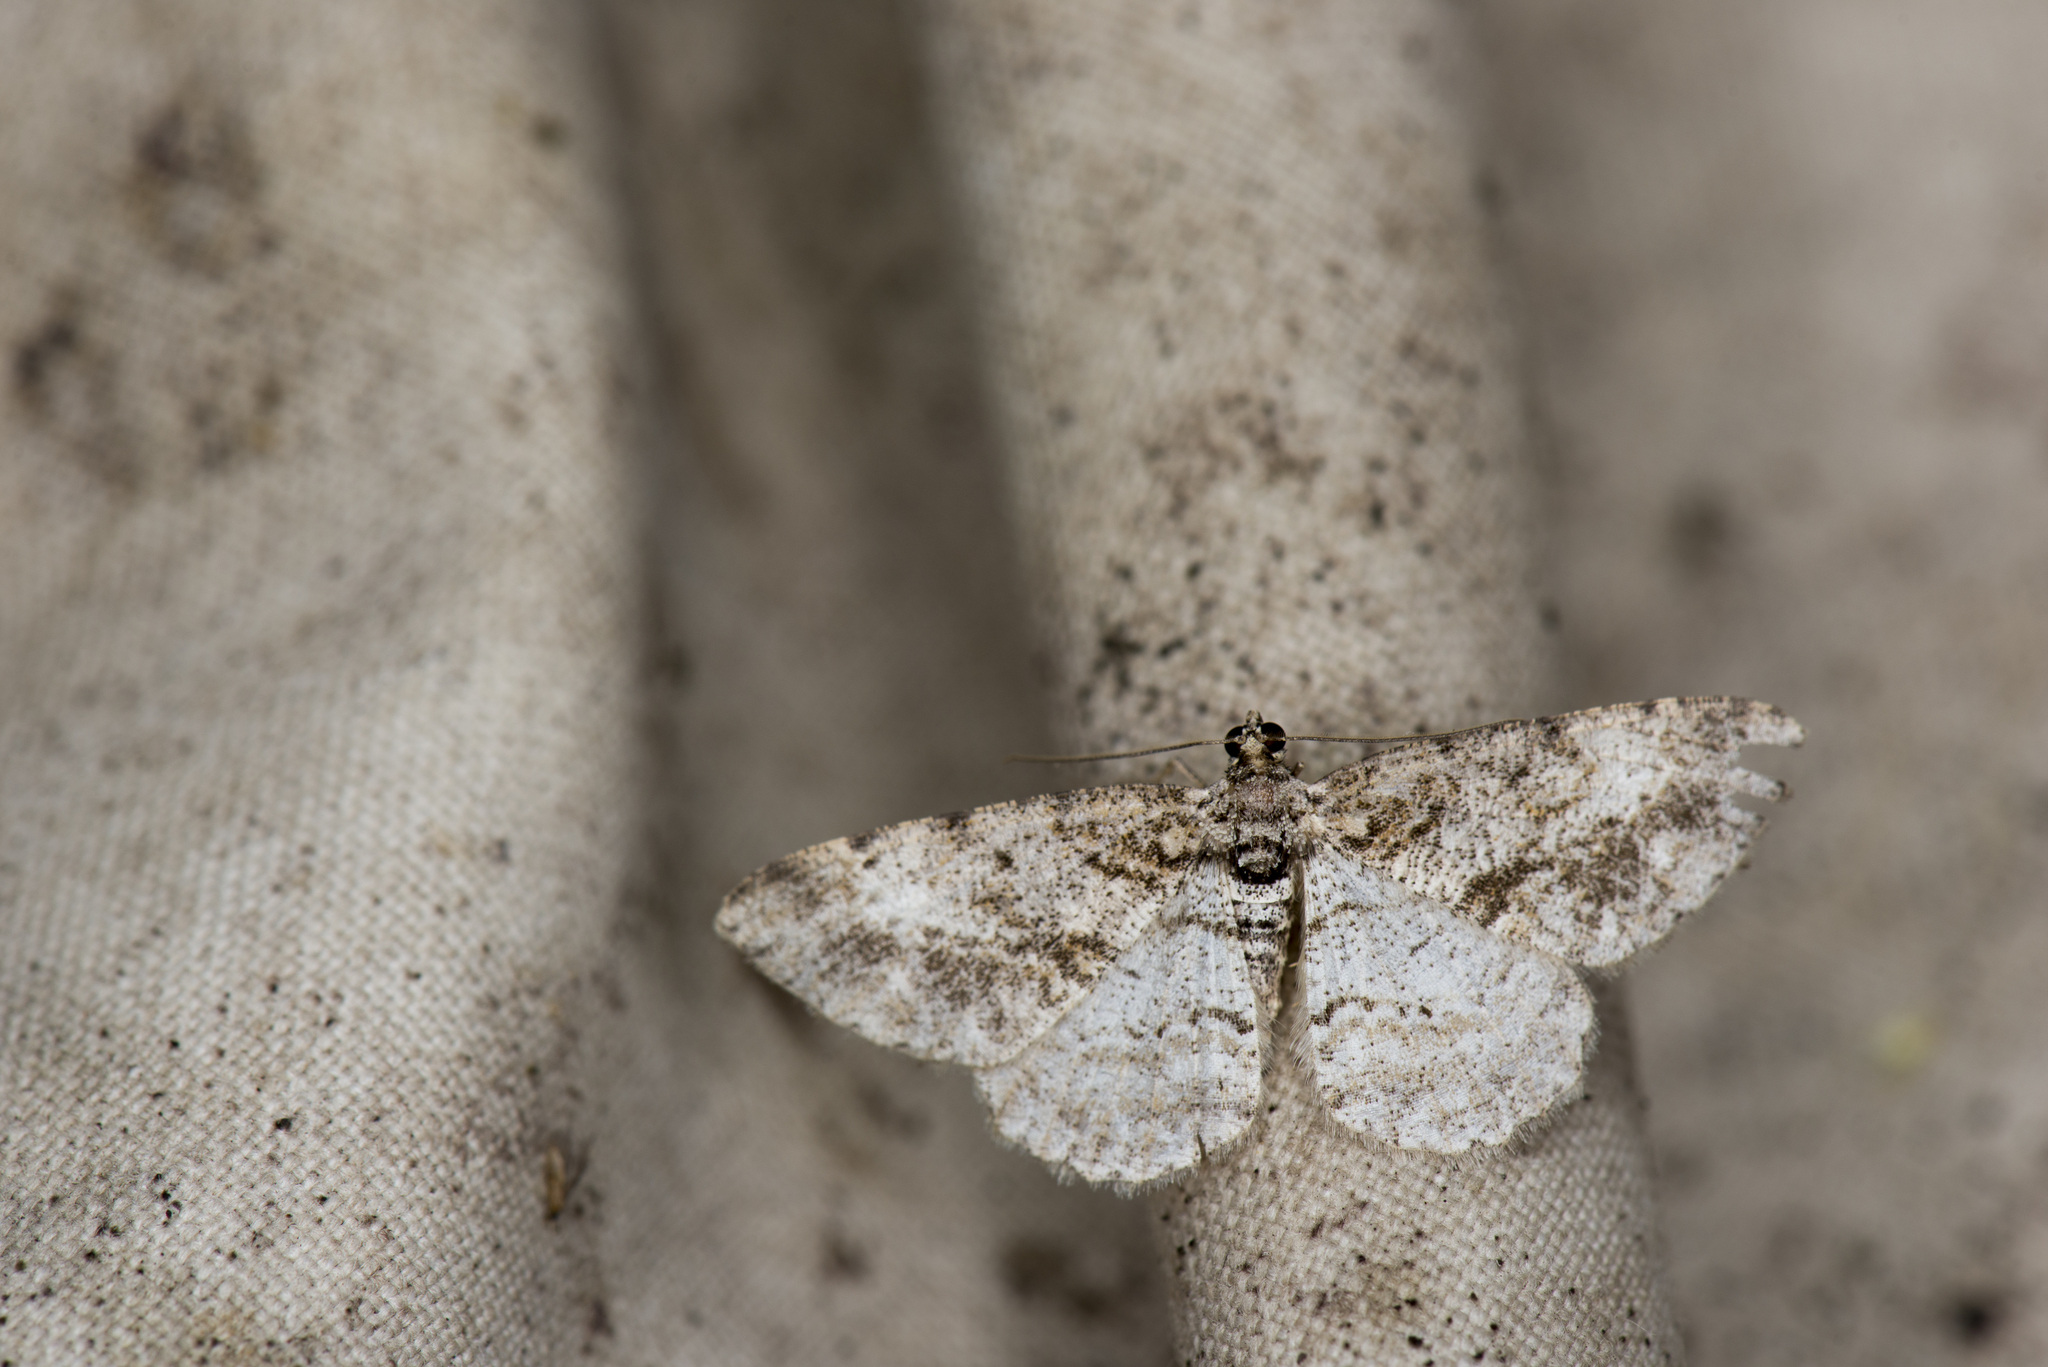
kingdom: Animalia
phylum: Arthropoda
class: Insecta
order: Lepidoptera
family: Geometridae
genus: Psilalcis
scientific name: Psilalcis breta
